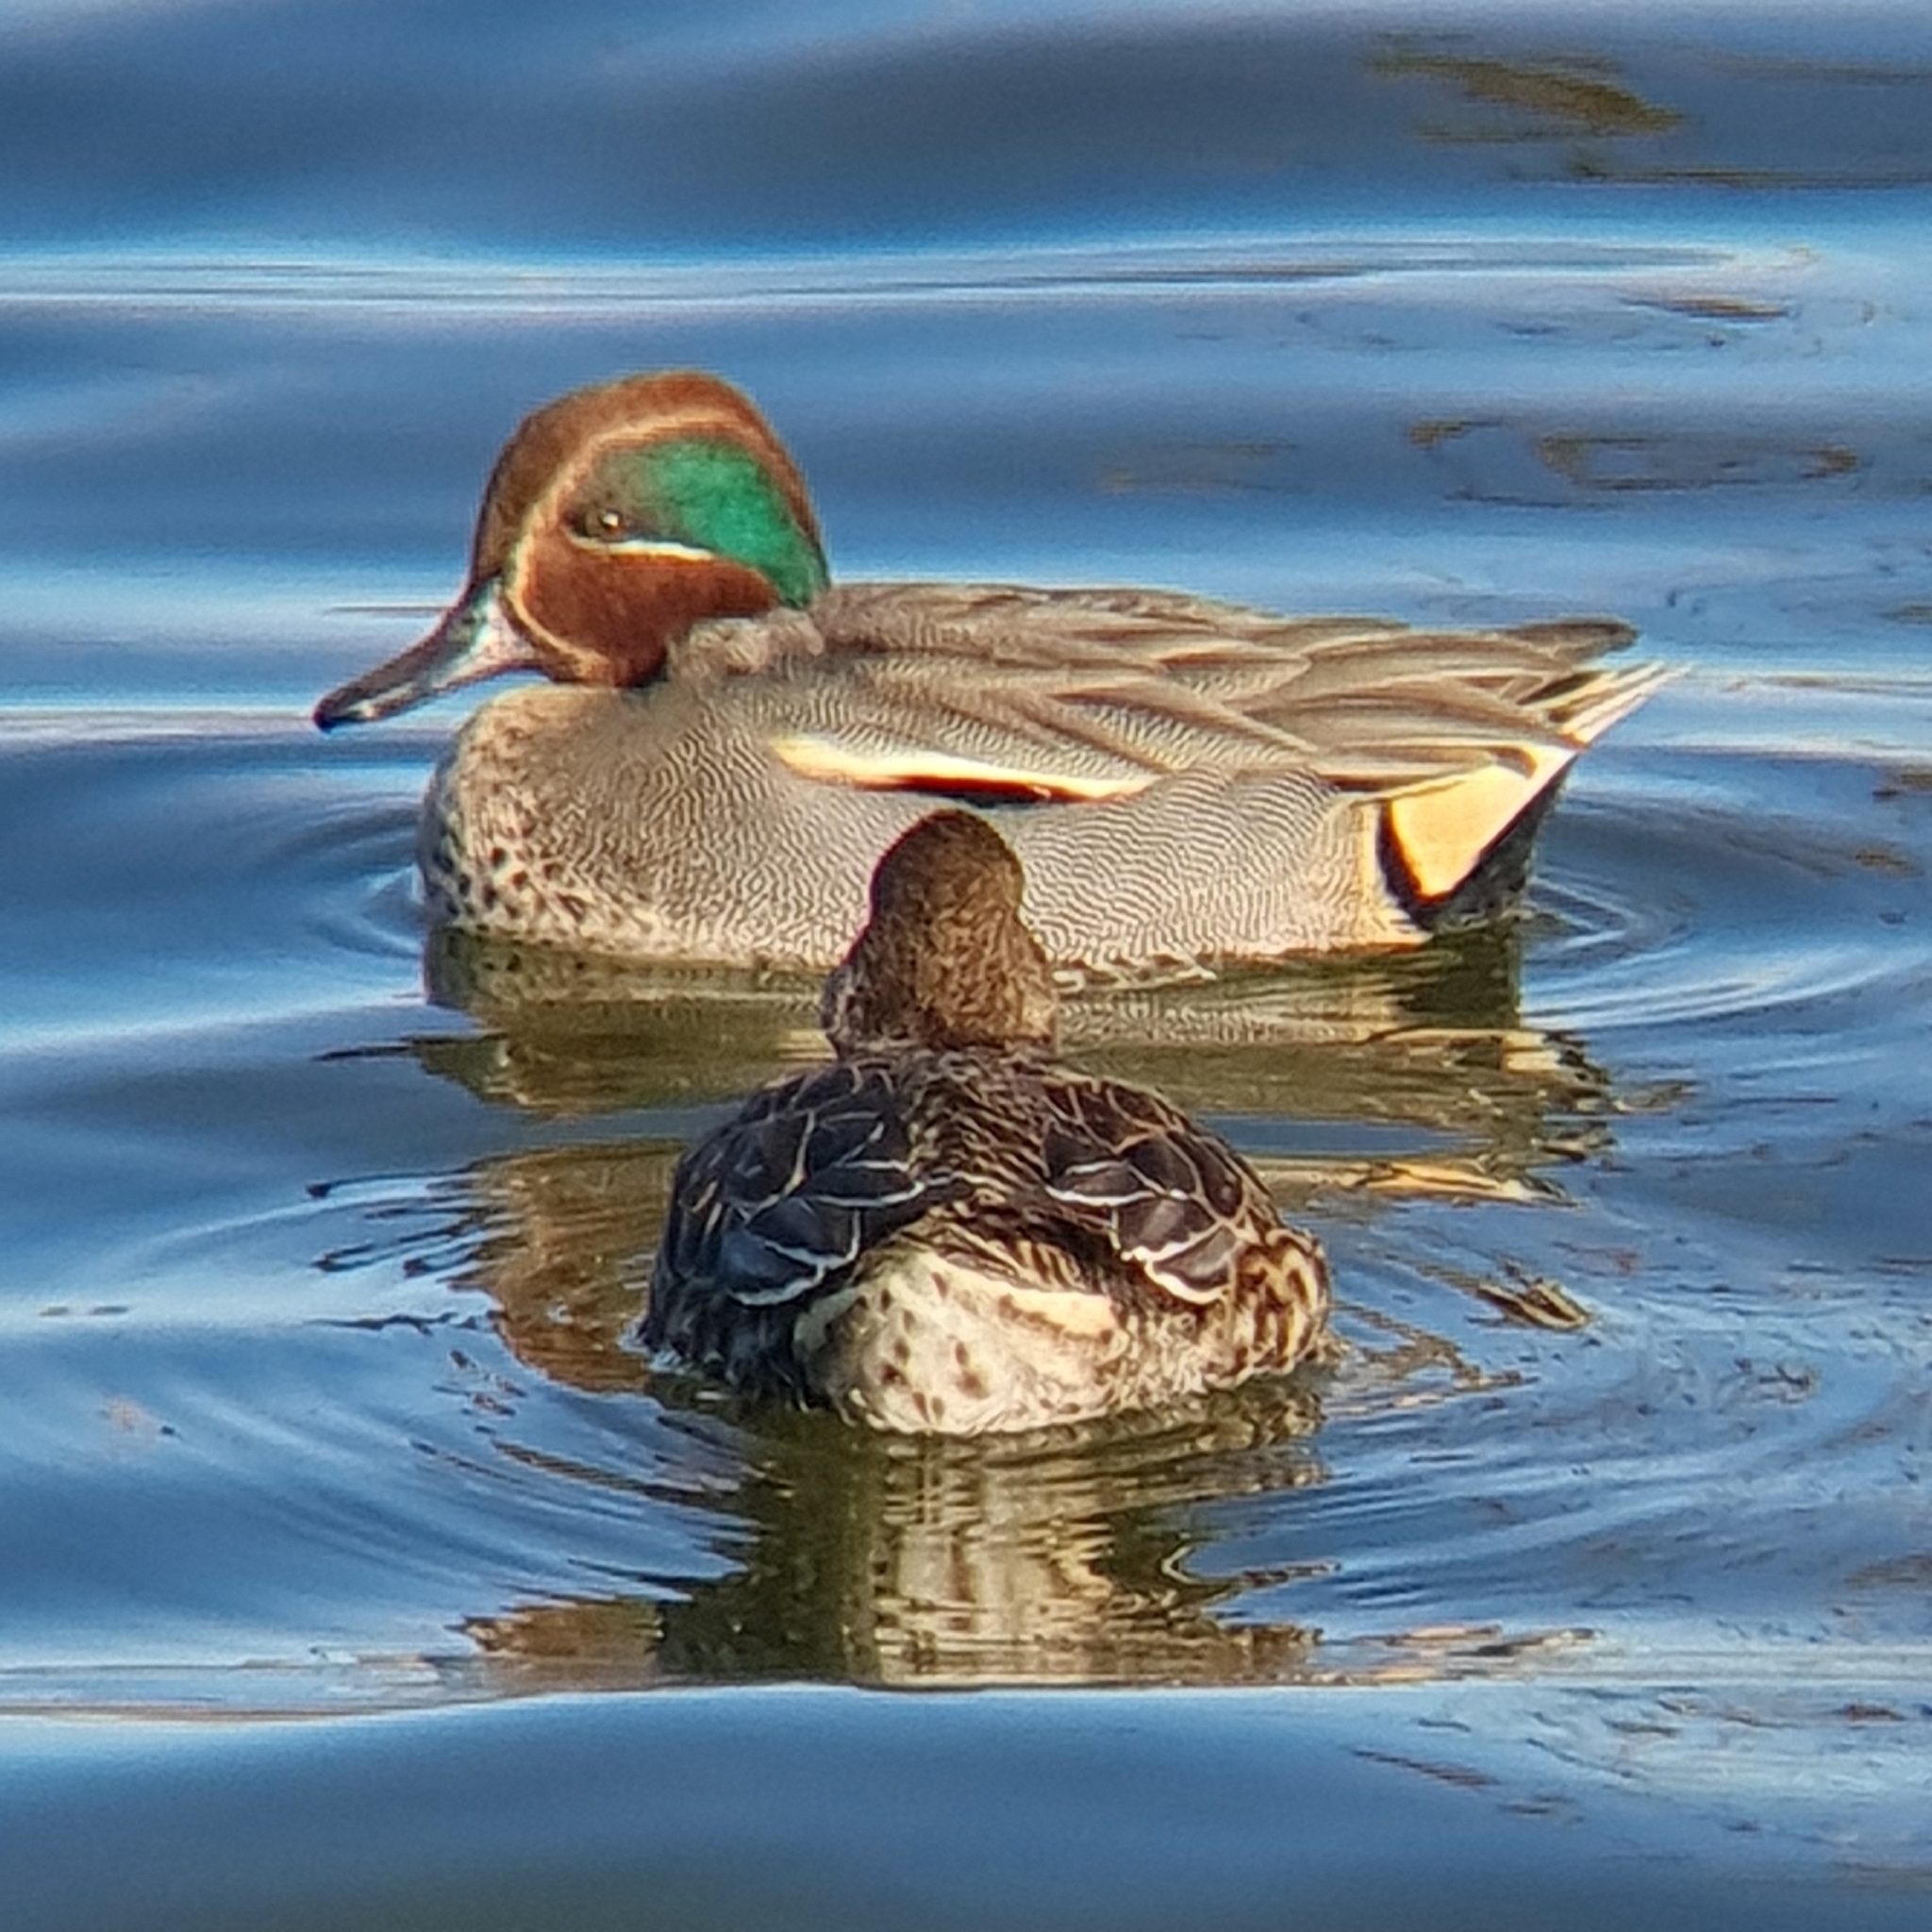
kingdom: Animalia
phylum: Chordata
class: Aves
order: Anseriformes
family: Anatidae
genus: Anas
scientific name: Anas crecca
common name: Eurasian teal
